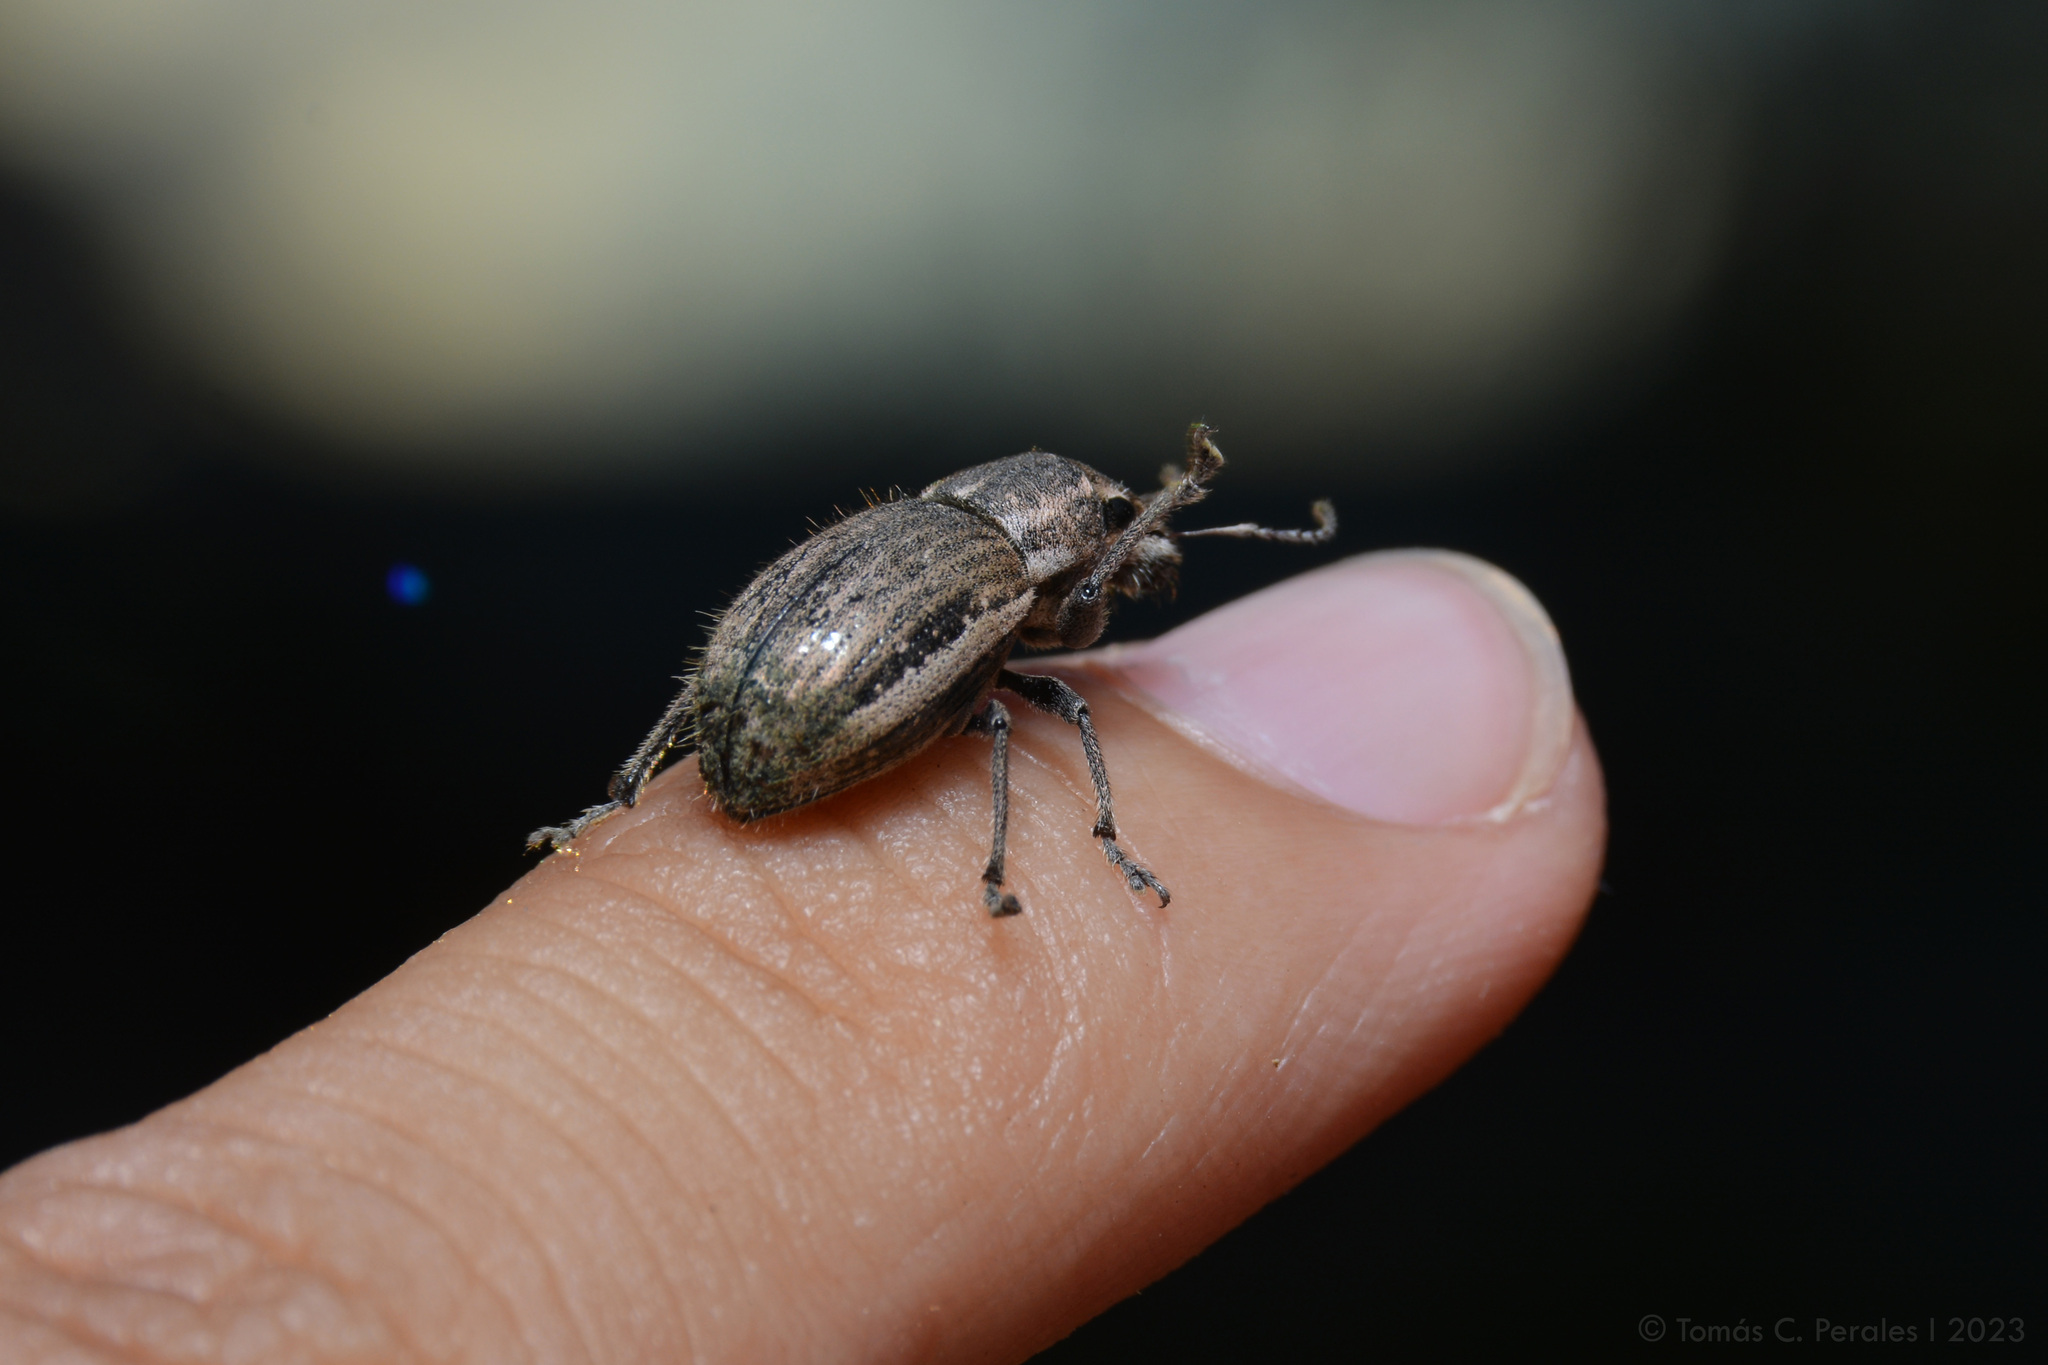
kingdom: Animalia
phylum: Arthropoda
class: Insecta
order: Coleoptera
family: Curculionidae
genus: Naupactus
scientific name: Naupactus leucoloma
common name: Whitefringed beetle
